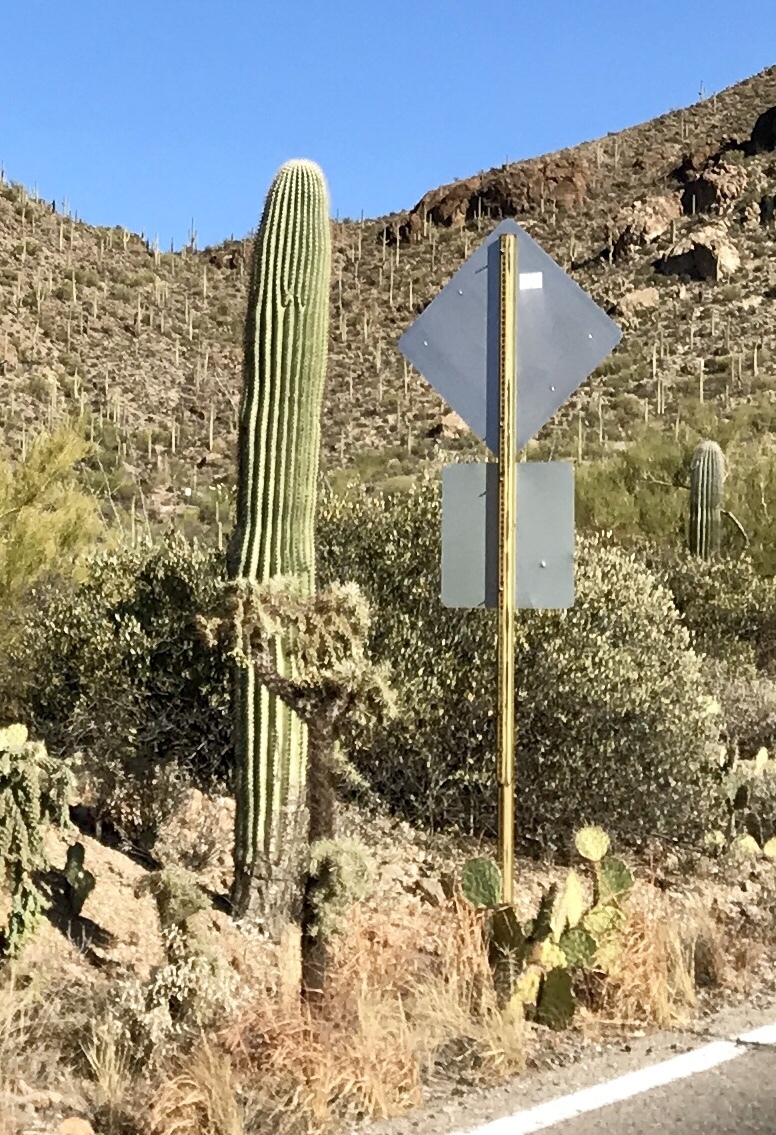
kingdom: Plantae
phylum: Tracheophyta
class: Magnoliopsida
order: Caryophyllales
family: Cactaceae
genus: Carnegiea
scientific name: Carnegiea gigantea
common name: Saguaro
